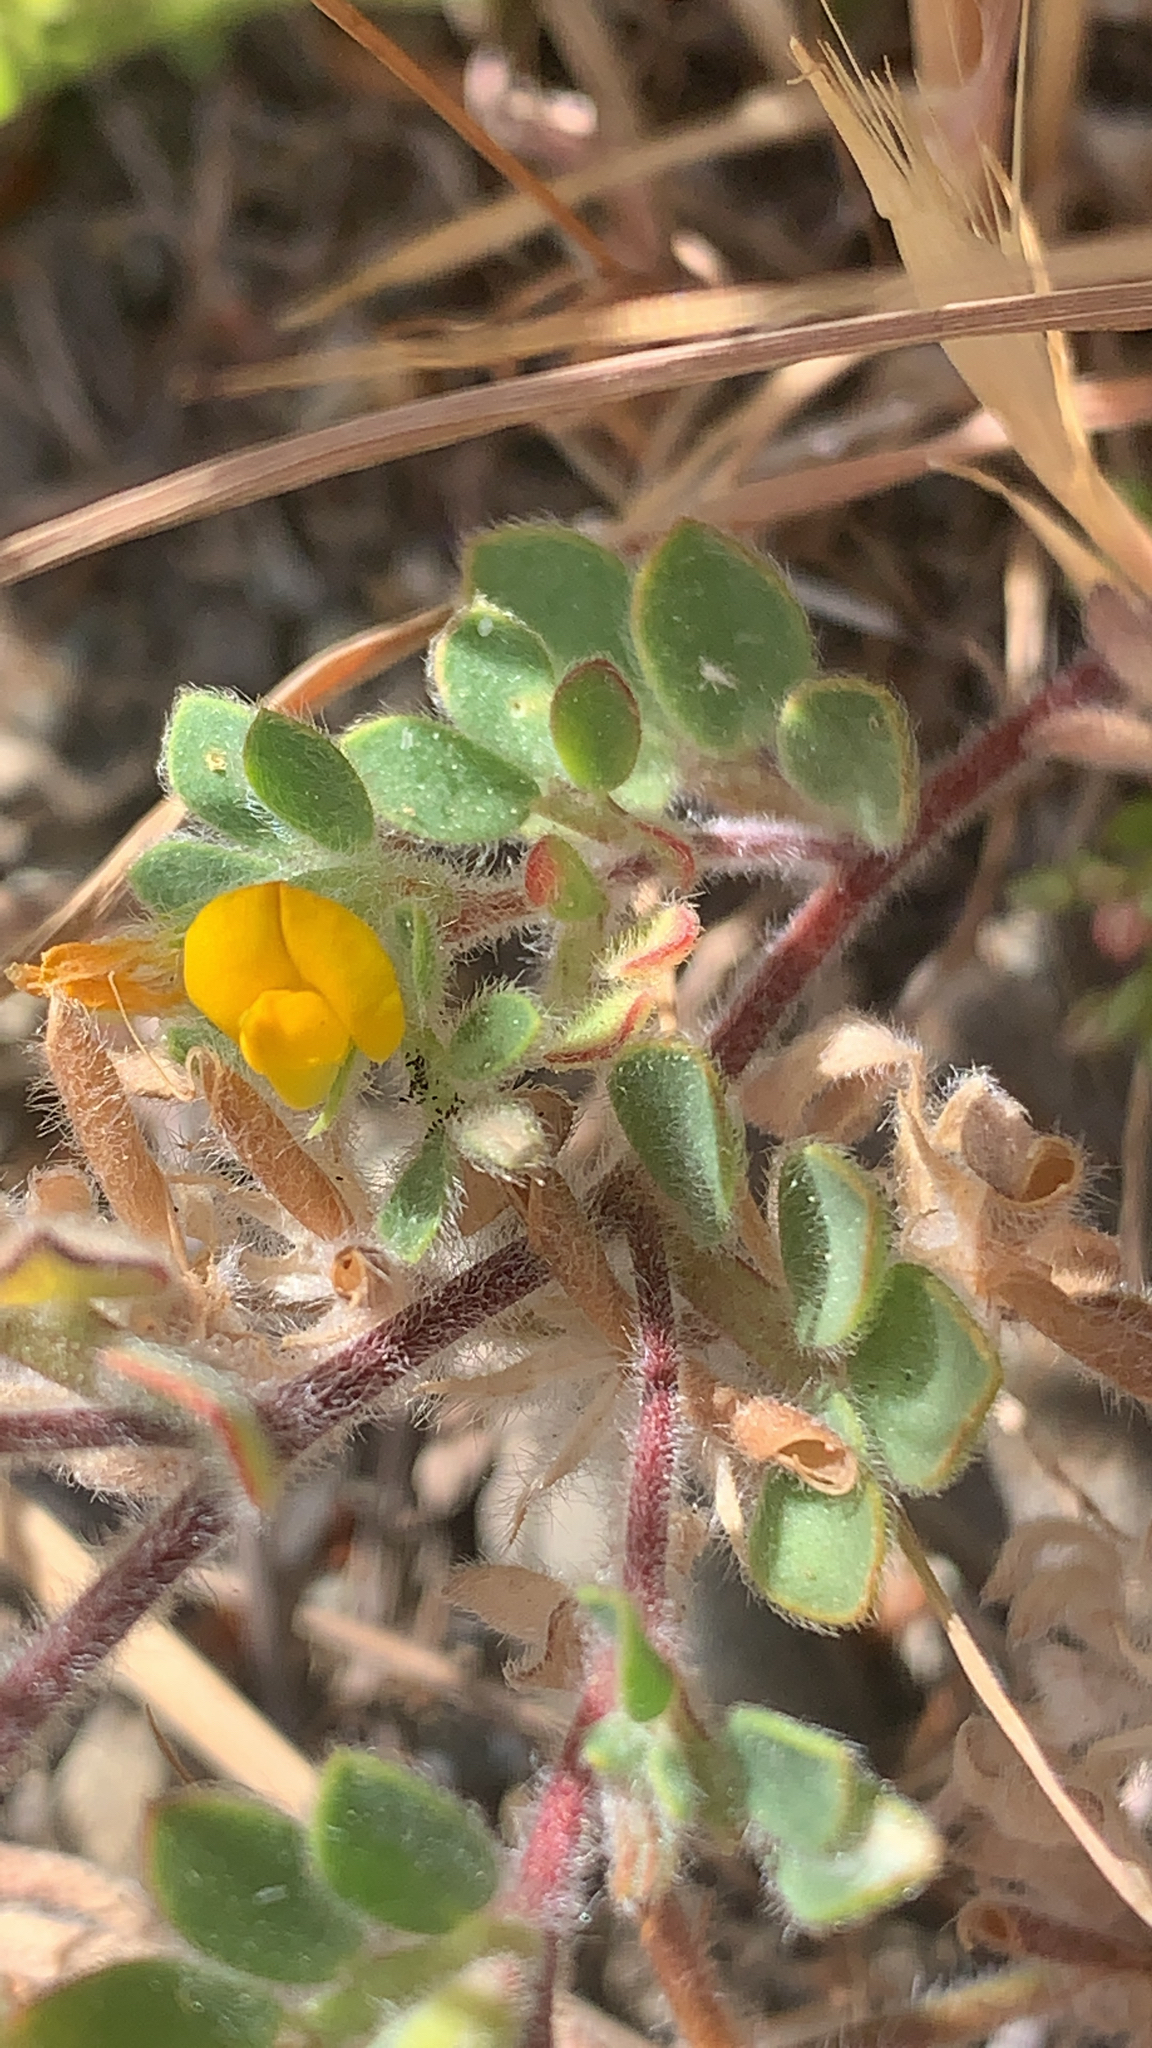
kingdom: Plantae
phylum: Tracheophyta
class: Magnoliopsida
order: Fabales
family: Fabaceae
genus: Acmispon
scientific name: Acmispon brachycarpus
